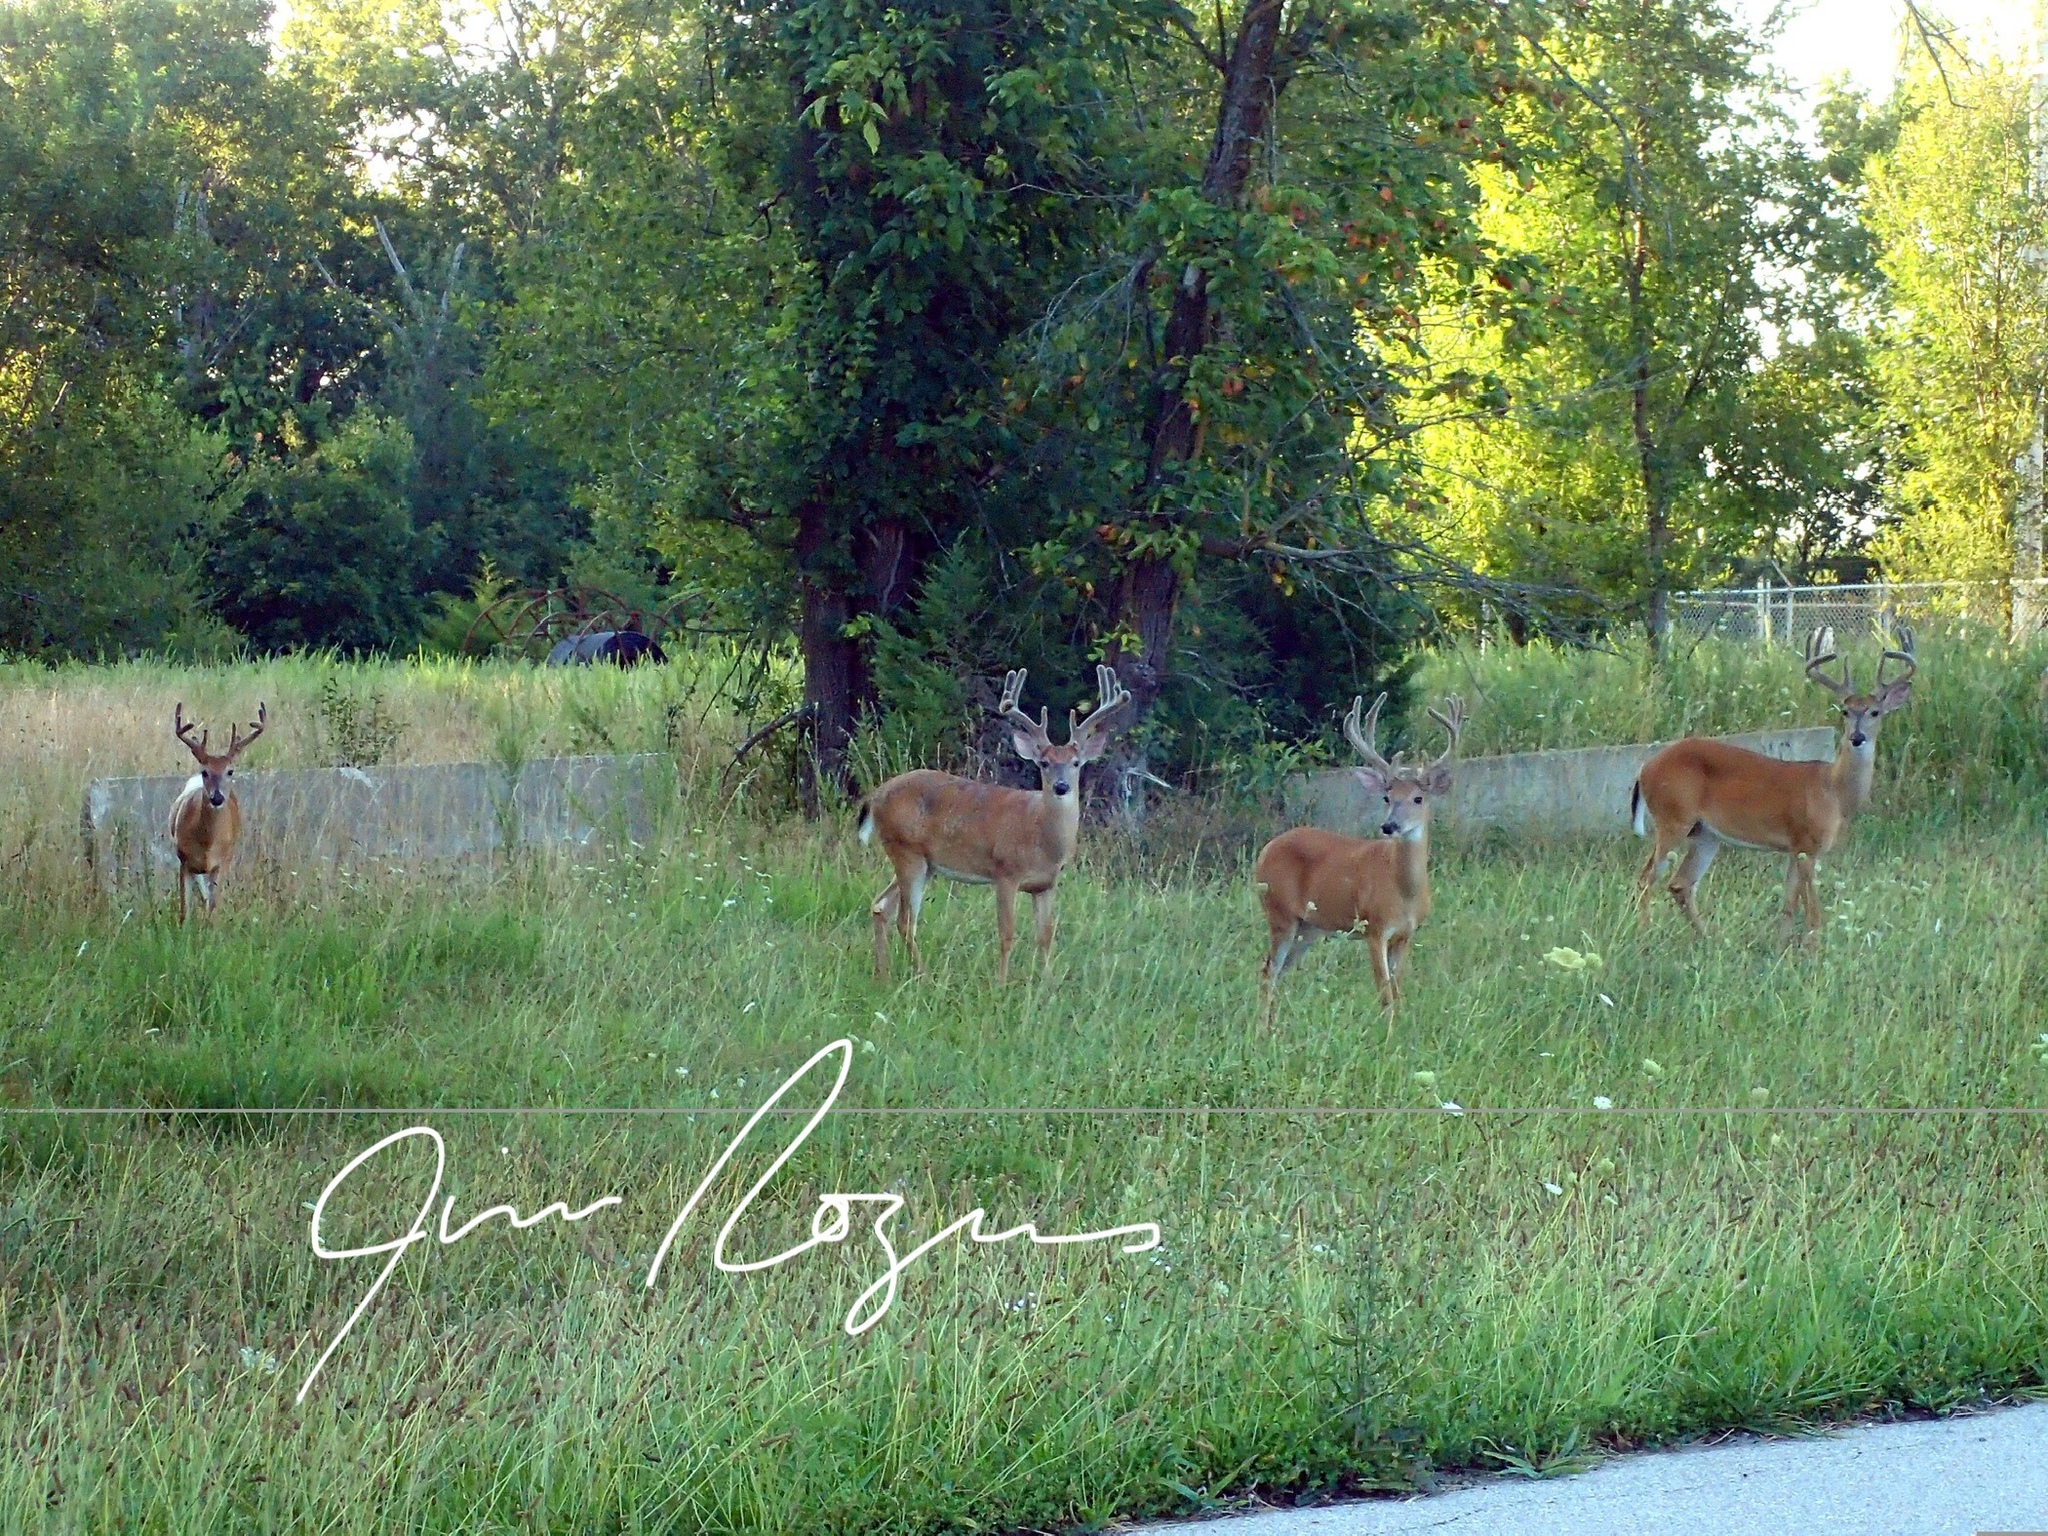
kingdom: Animalia
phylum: Chordata
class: Mammalia
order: Artiodactyla
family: Cervidae
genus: Odocoileus
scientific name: Odocoileus virginianus
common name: White-tailed deer
